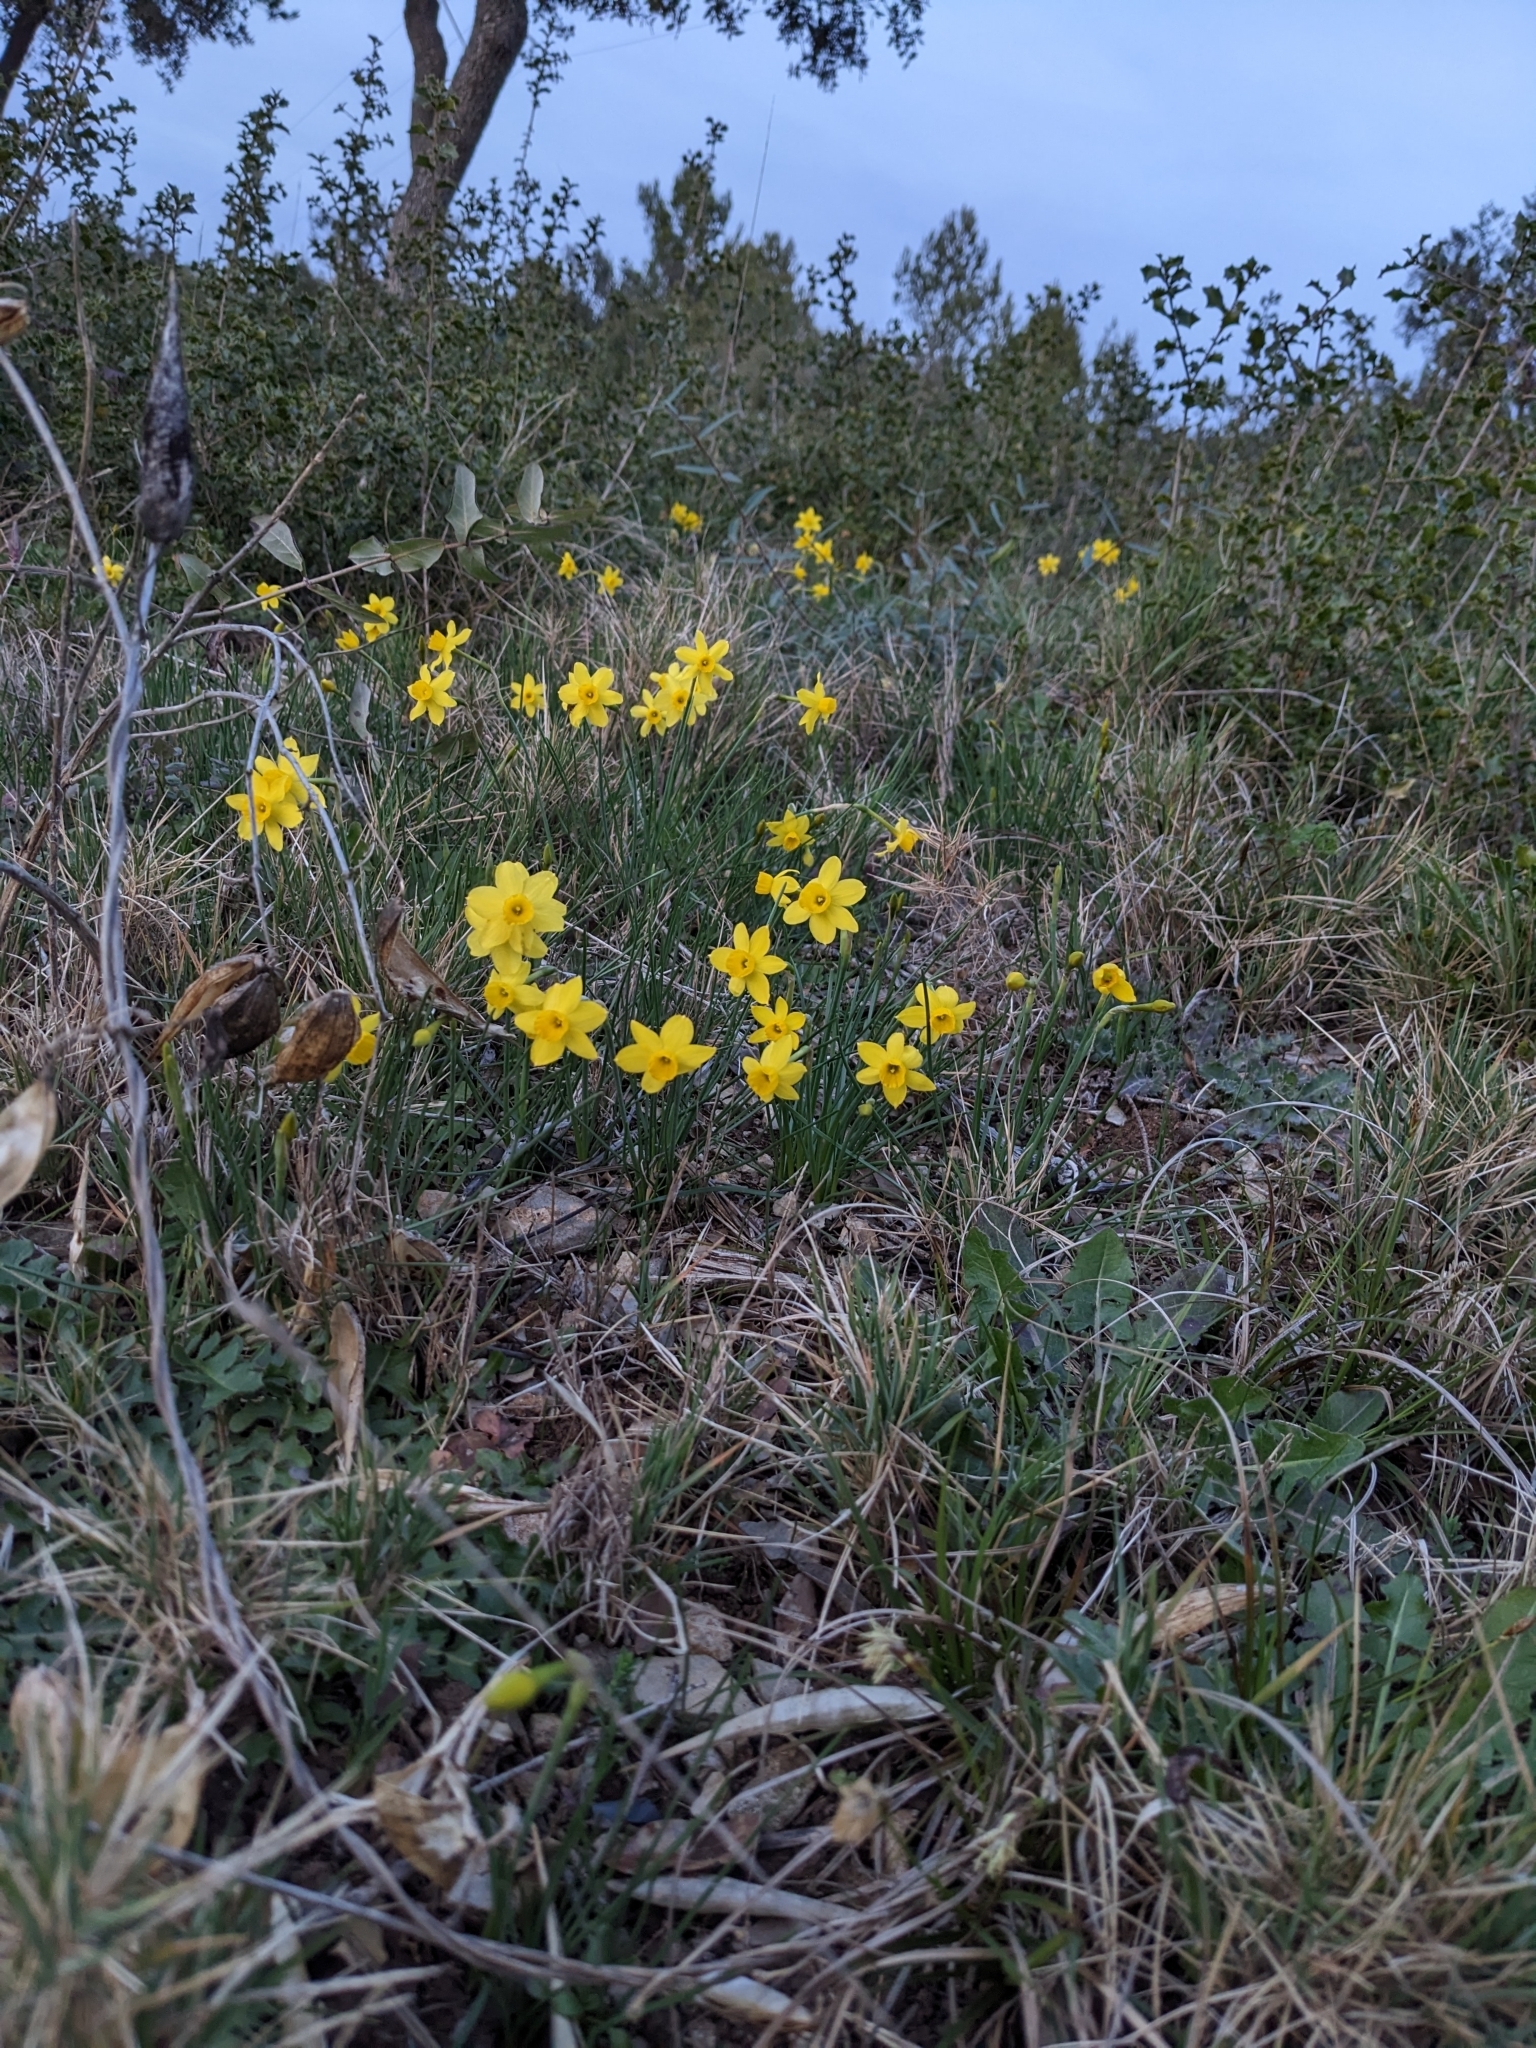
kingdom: Plantae
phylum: Tracheophyta
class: Liliopsida
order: Asparagales
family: Amaryllidaceae
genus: Narcissus
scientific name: Narcissus assoanus
